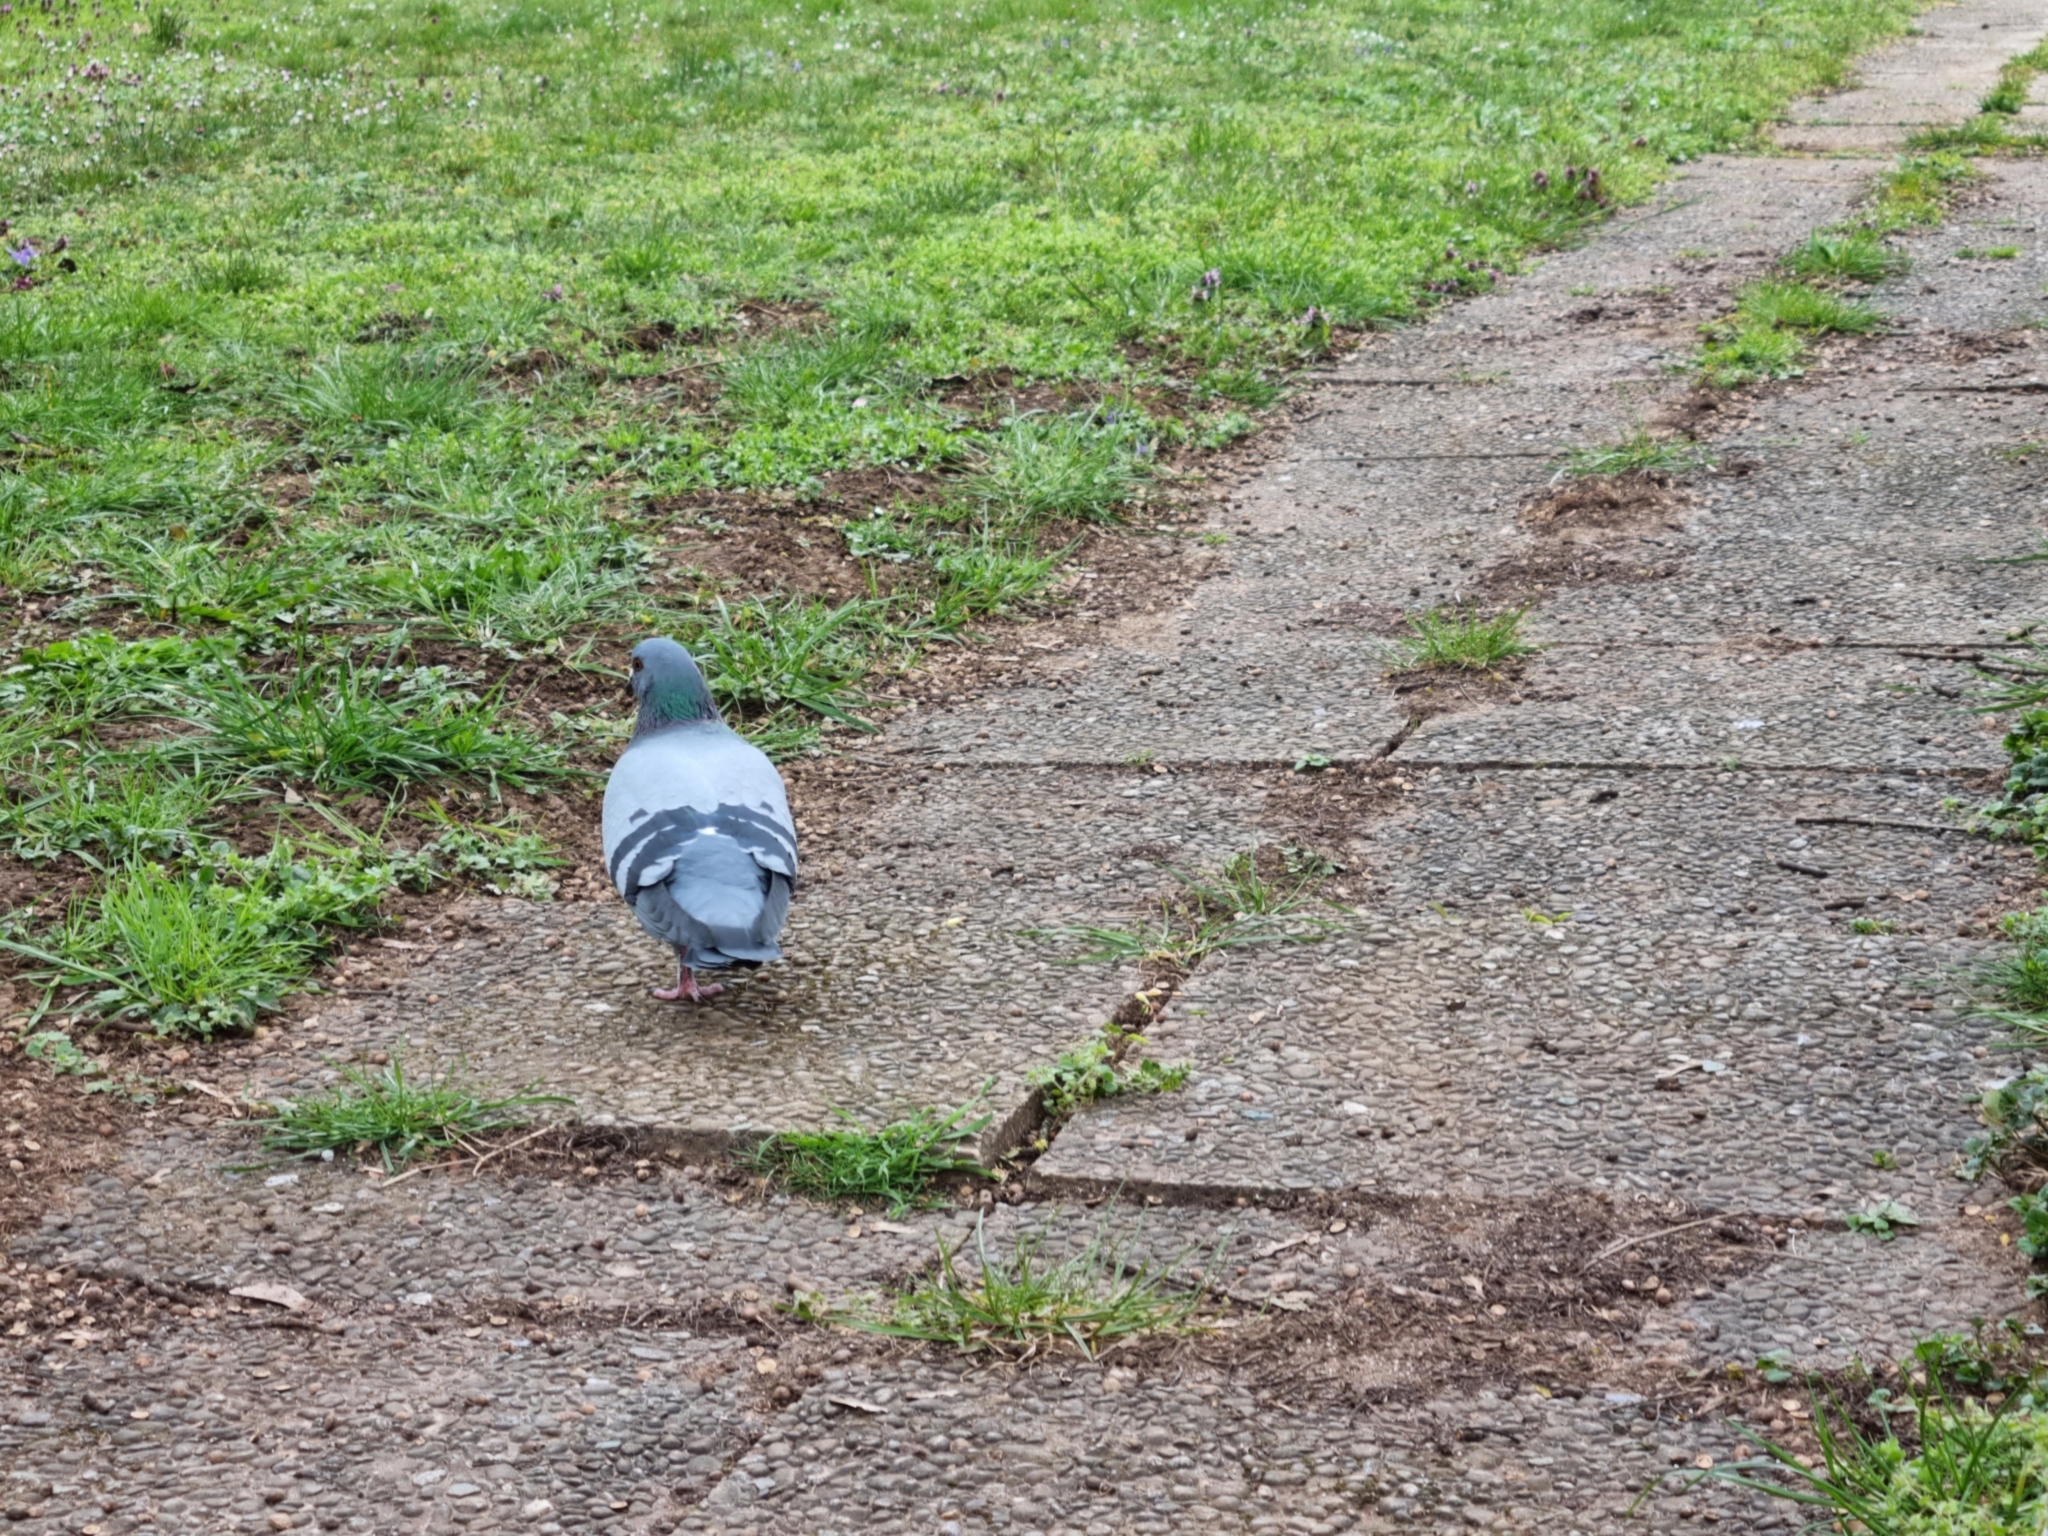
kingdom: Animalia
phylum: Chordata
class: Aves
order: Columbiformes
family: Columbidae
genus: Columba
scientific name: Columba livia
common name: Rock pigeon
